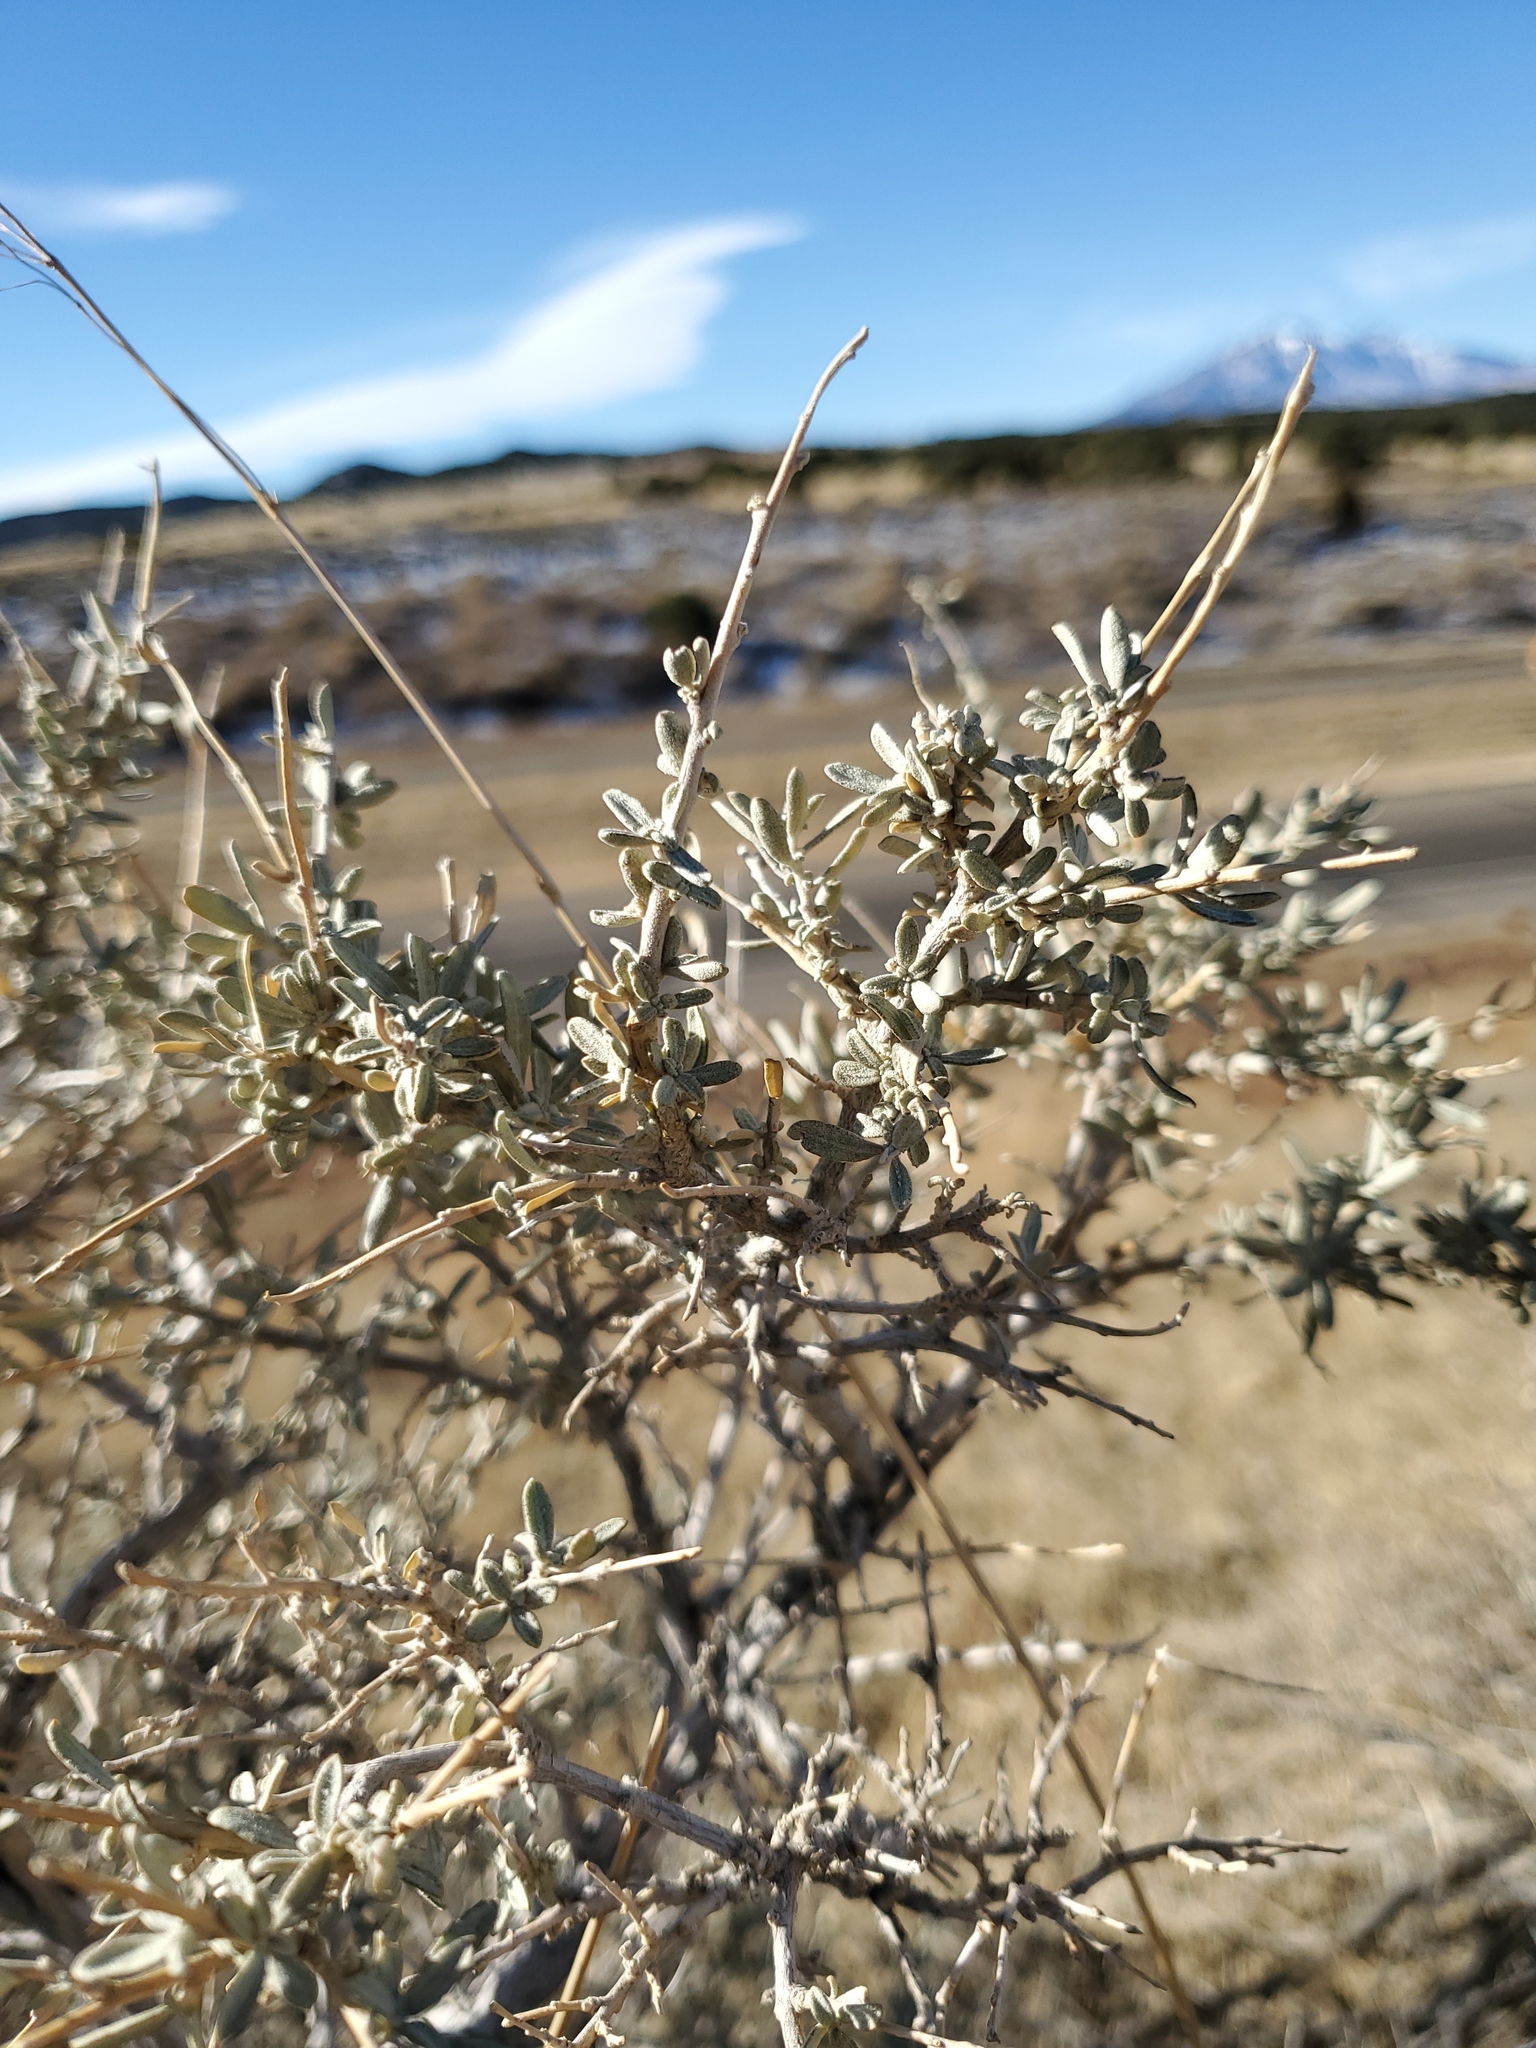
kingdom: Plantae
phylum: Tracheophyta
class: Magnoliopsida
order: Caryophyllales
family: Amaranthaceae
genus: Atriplex
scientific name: Atriplex canescens
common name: Four-wing saltbush
